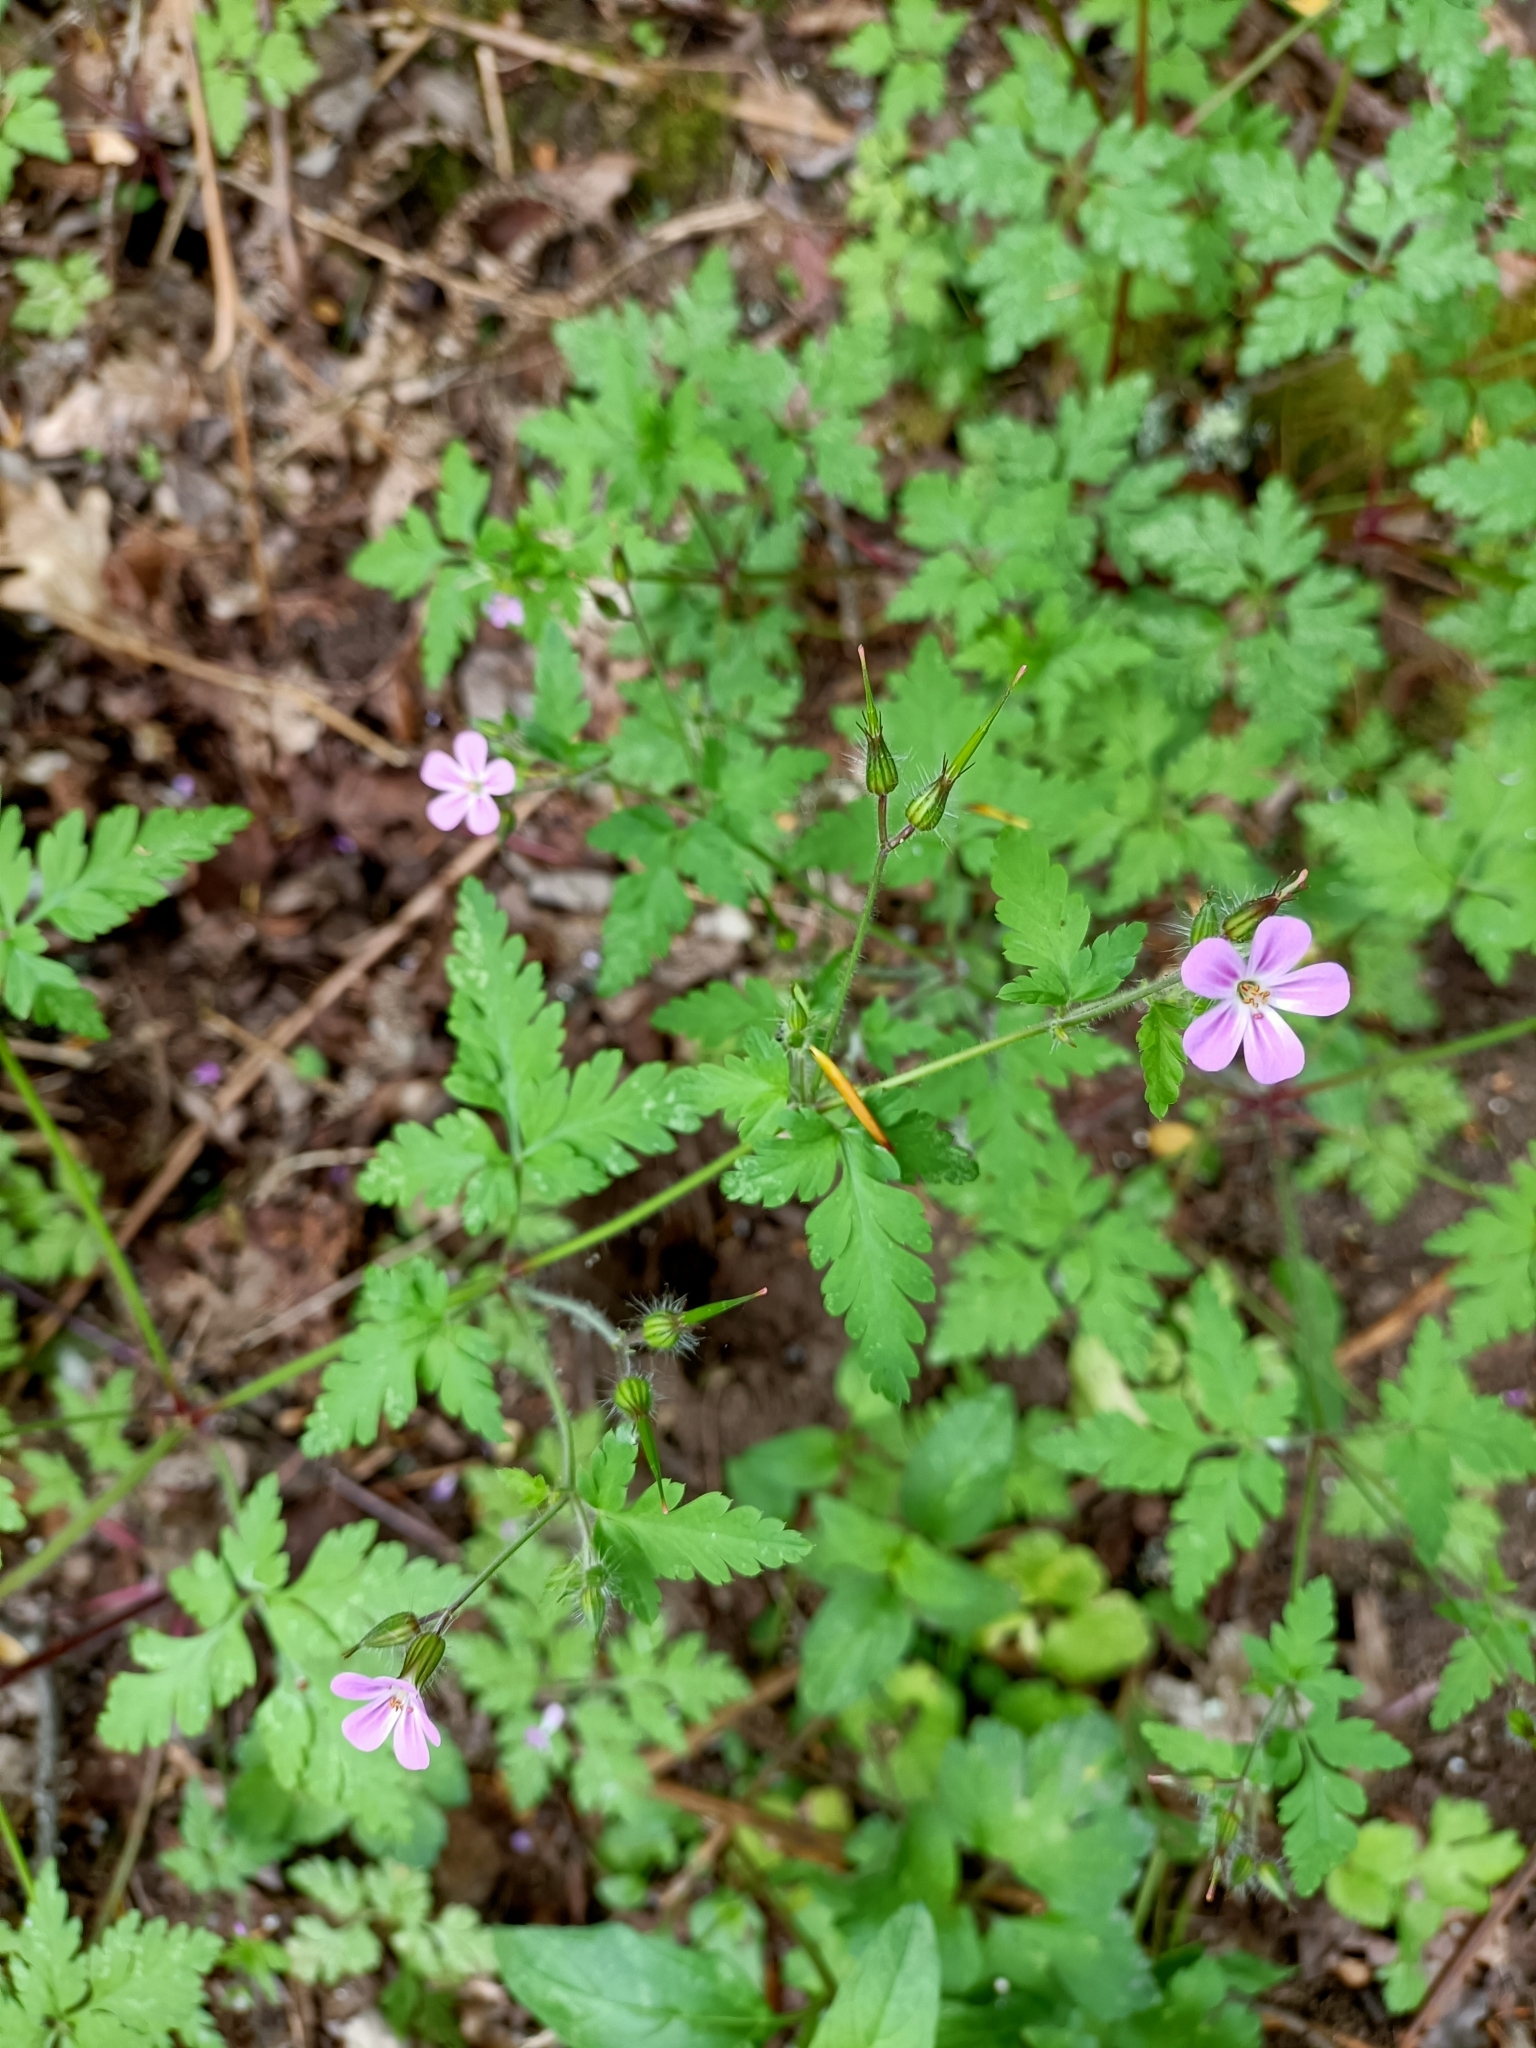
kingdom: Plantae
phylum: Tracheophyta
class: Magnoliopsida
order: Geraniales
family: Geraniaceae
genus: Geranium
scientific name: Geranium robertianum
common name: Herb-robert
